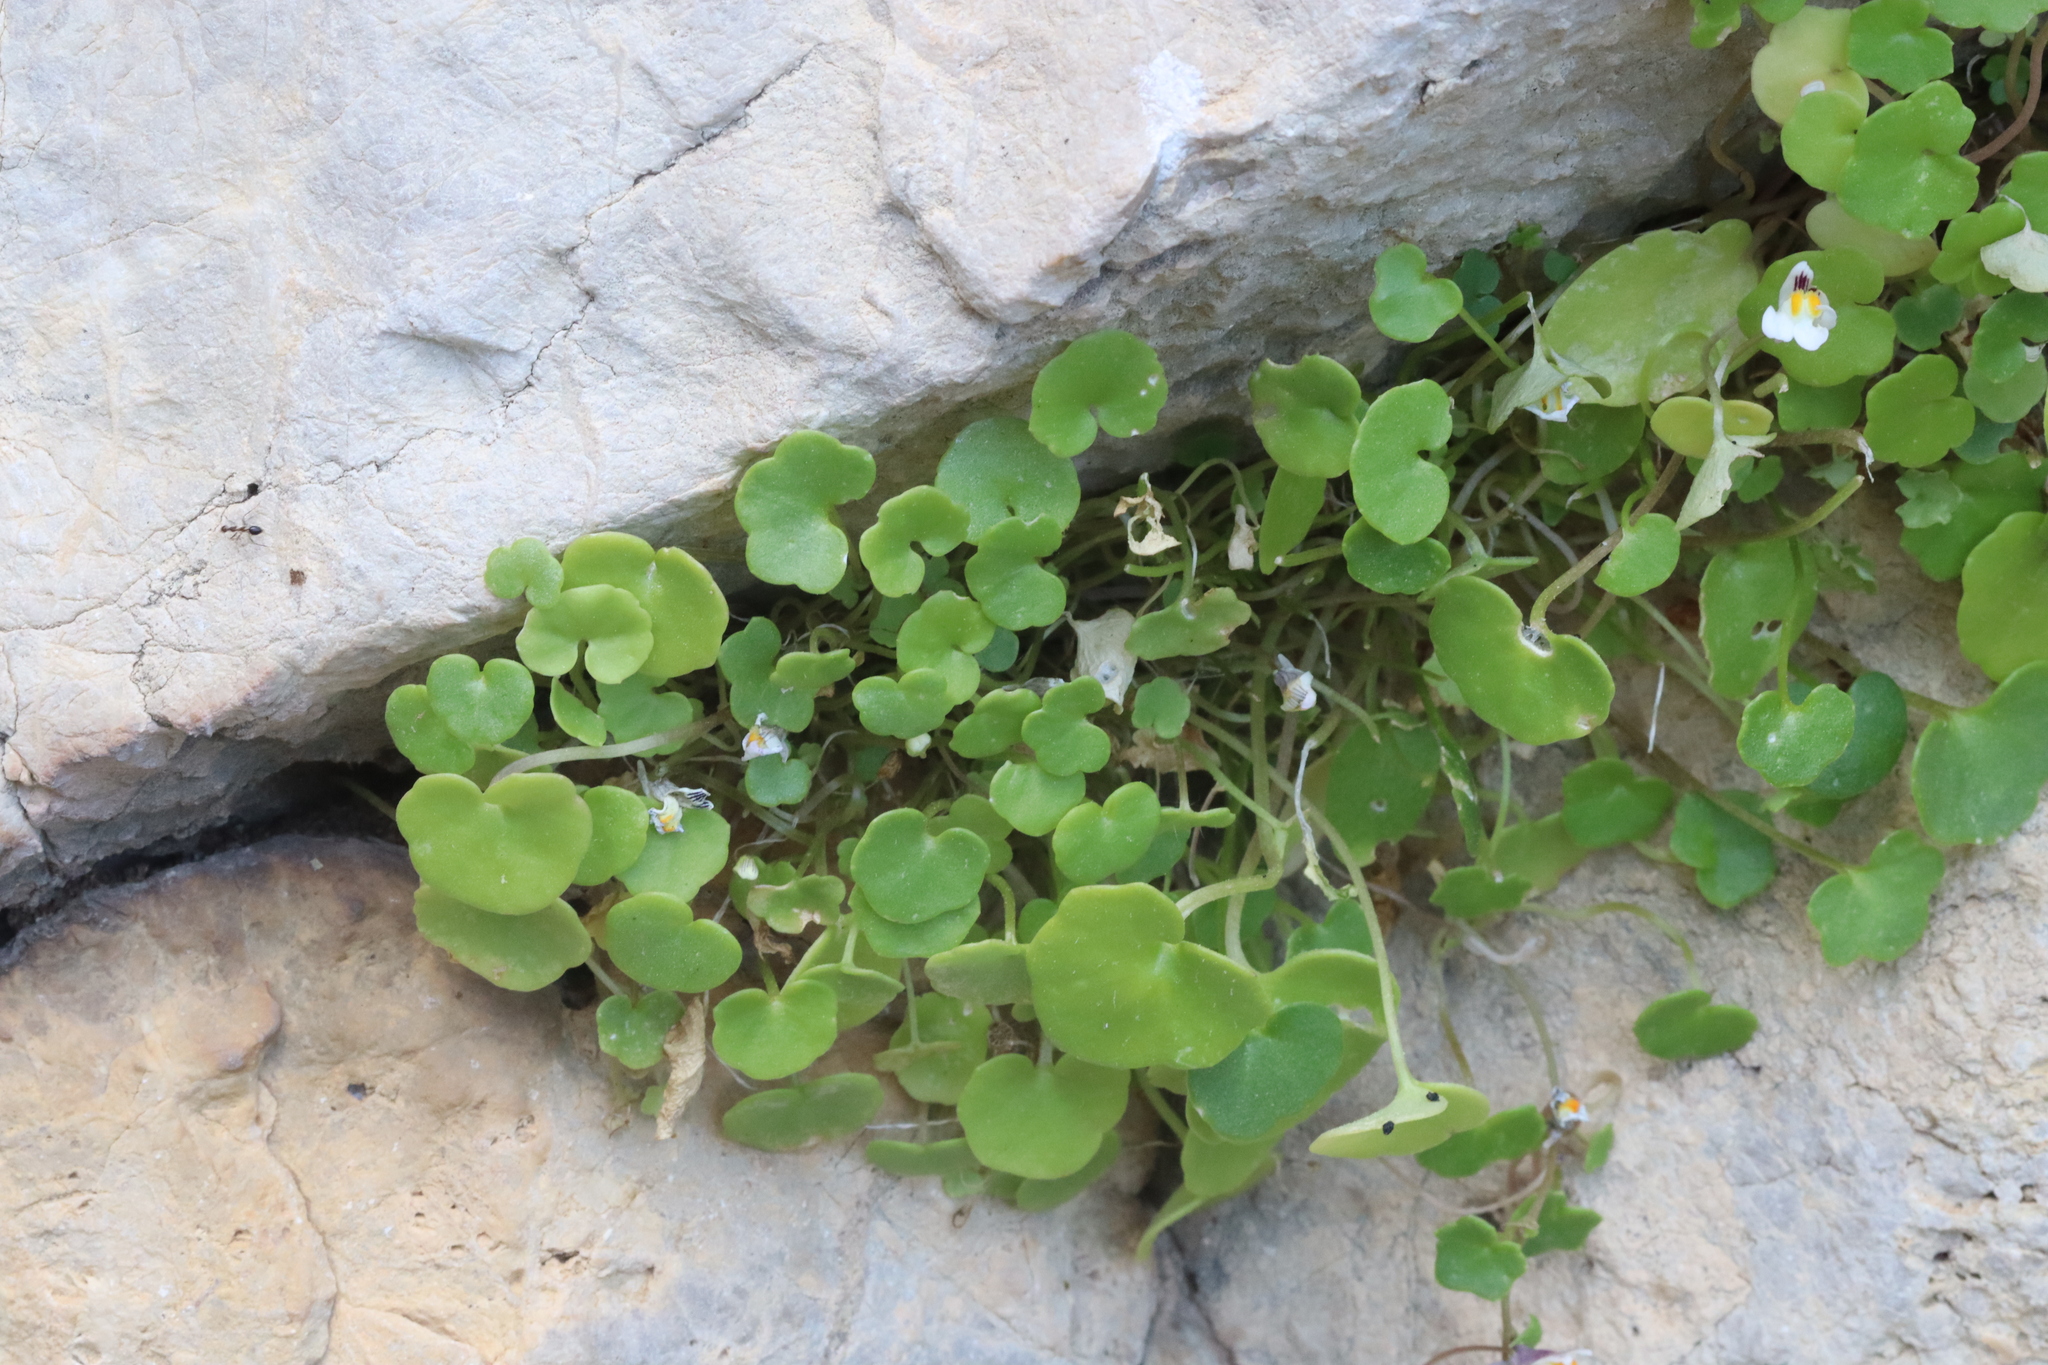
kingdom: Plantae
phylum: Tracheophyta
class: Magnoliopsida
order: Lamiales
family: Plantaginaceae
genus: Cymbalaria
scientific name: Cymbalaria longipes
